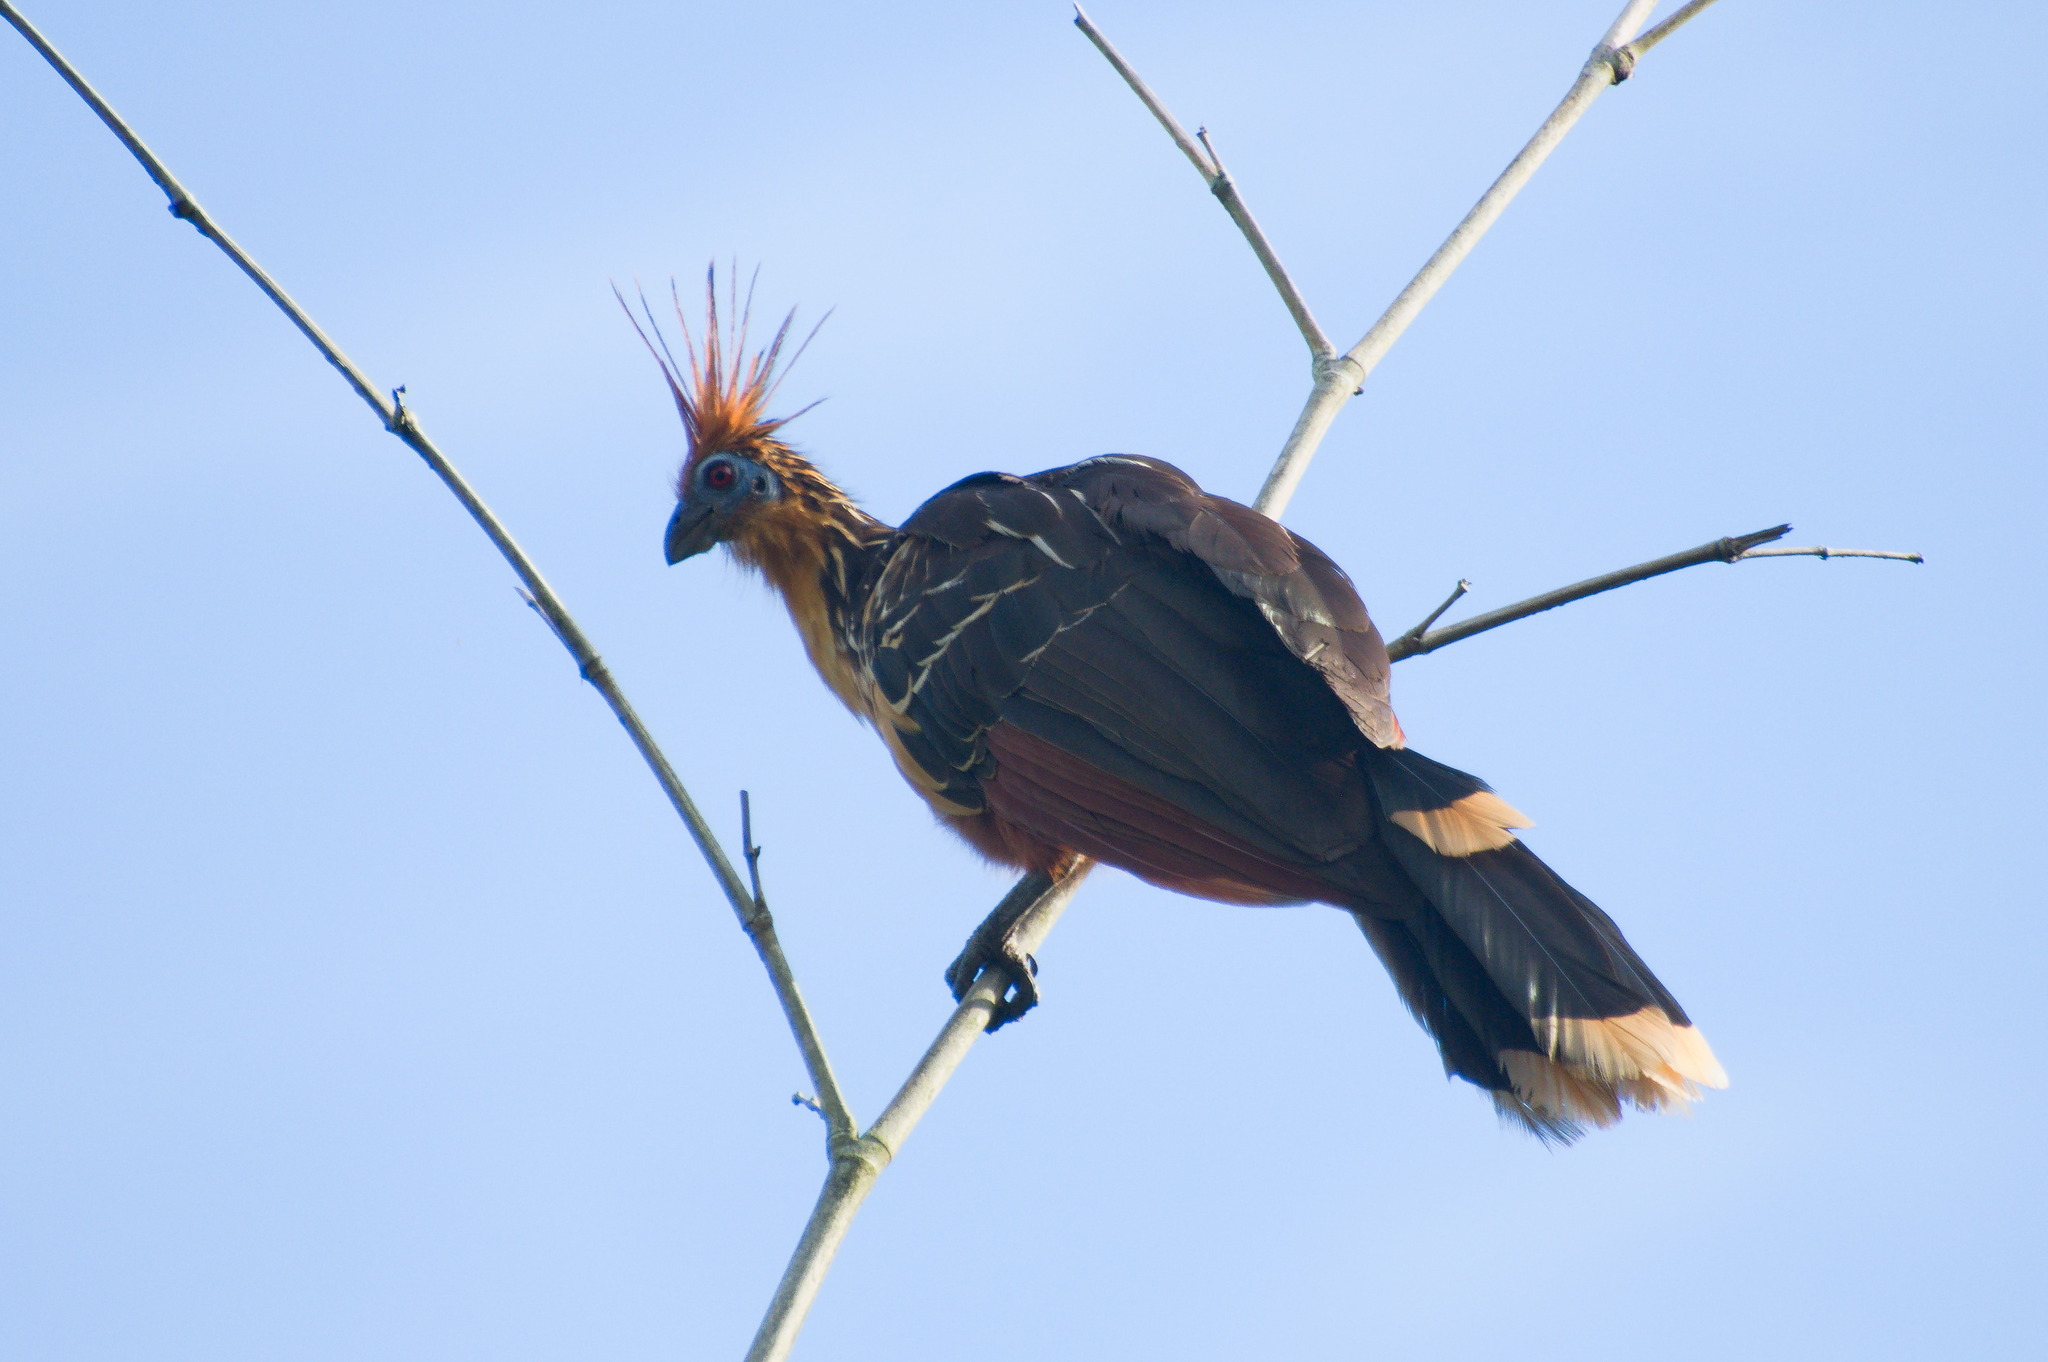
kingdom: Animalia
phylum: Chordata
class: Aves
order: Opisthocomiformes
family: Opisthocomidae
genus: Opisthocomus
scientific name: Opisthocomus hoazin
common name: Hoatzin
